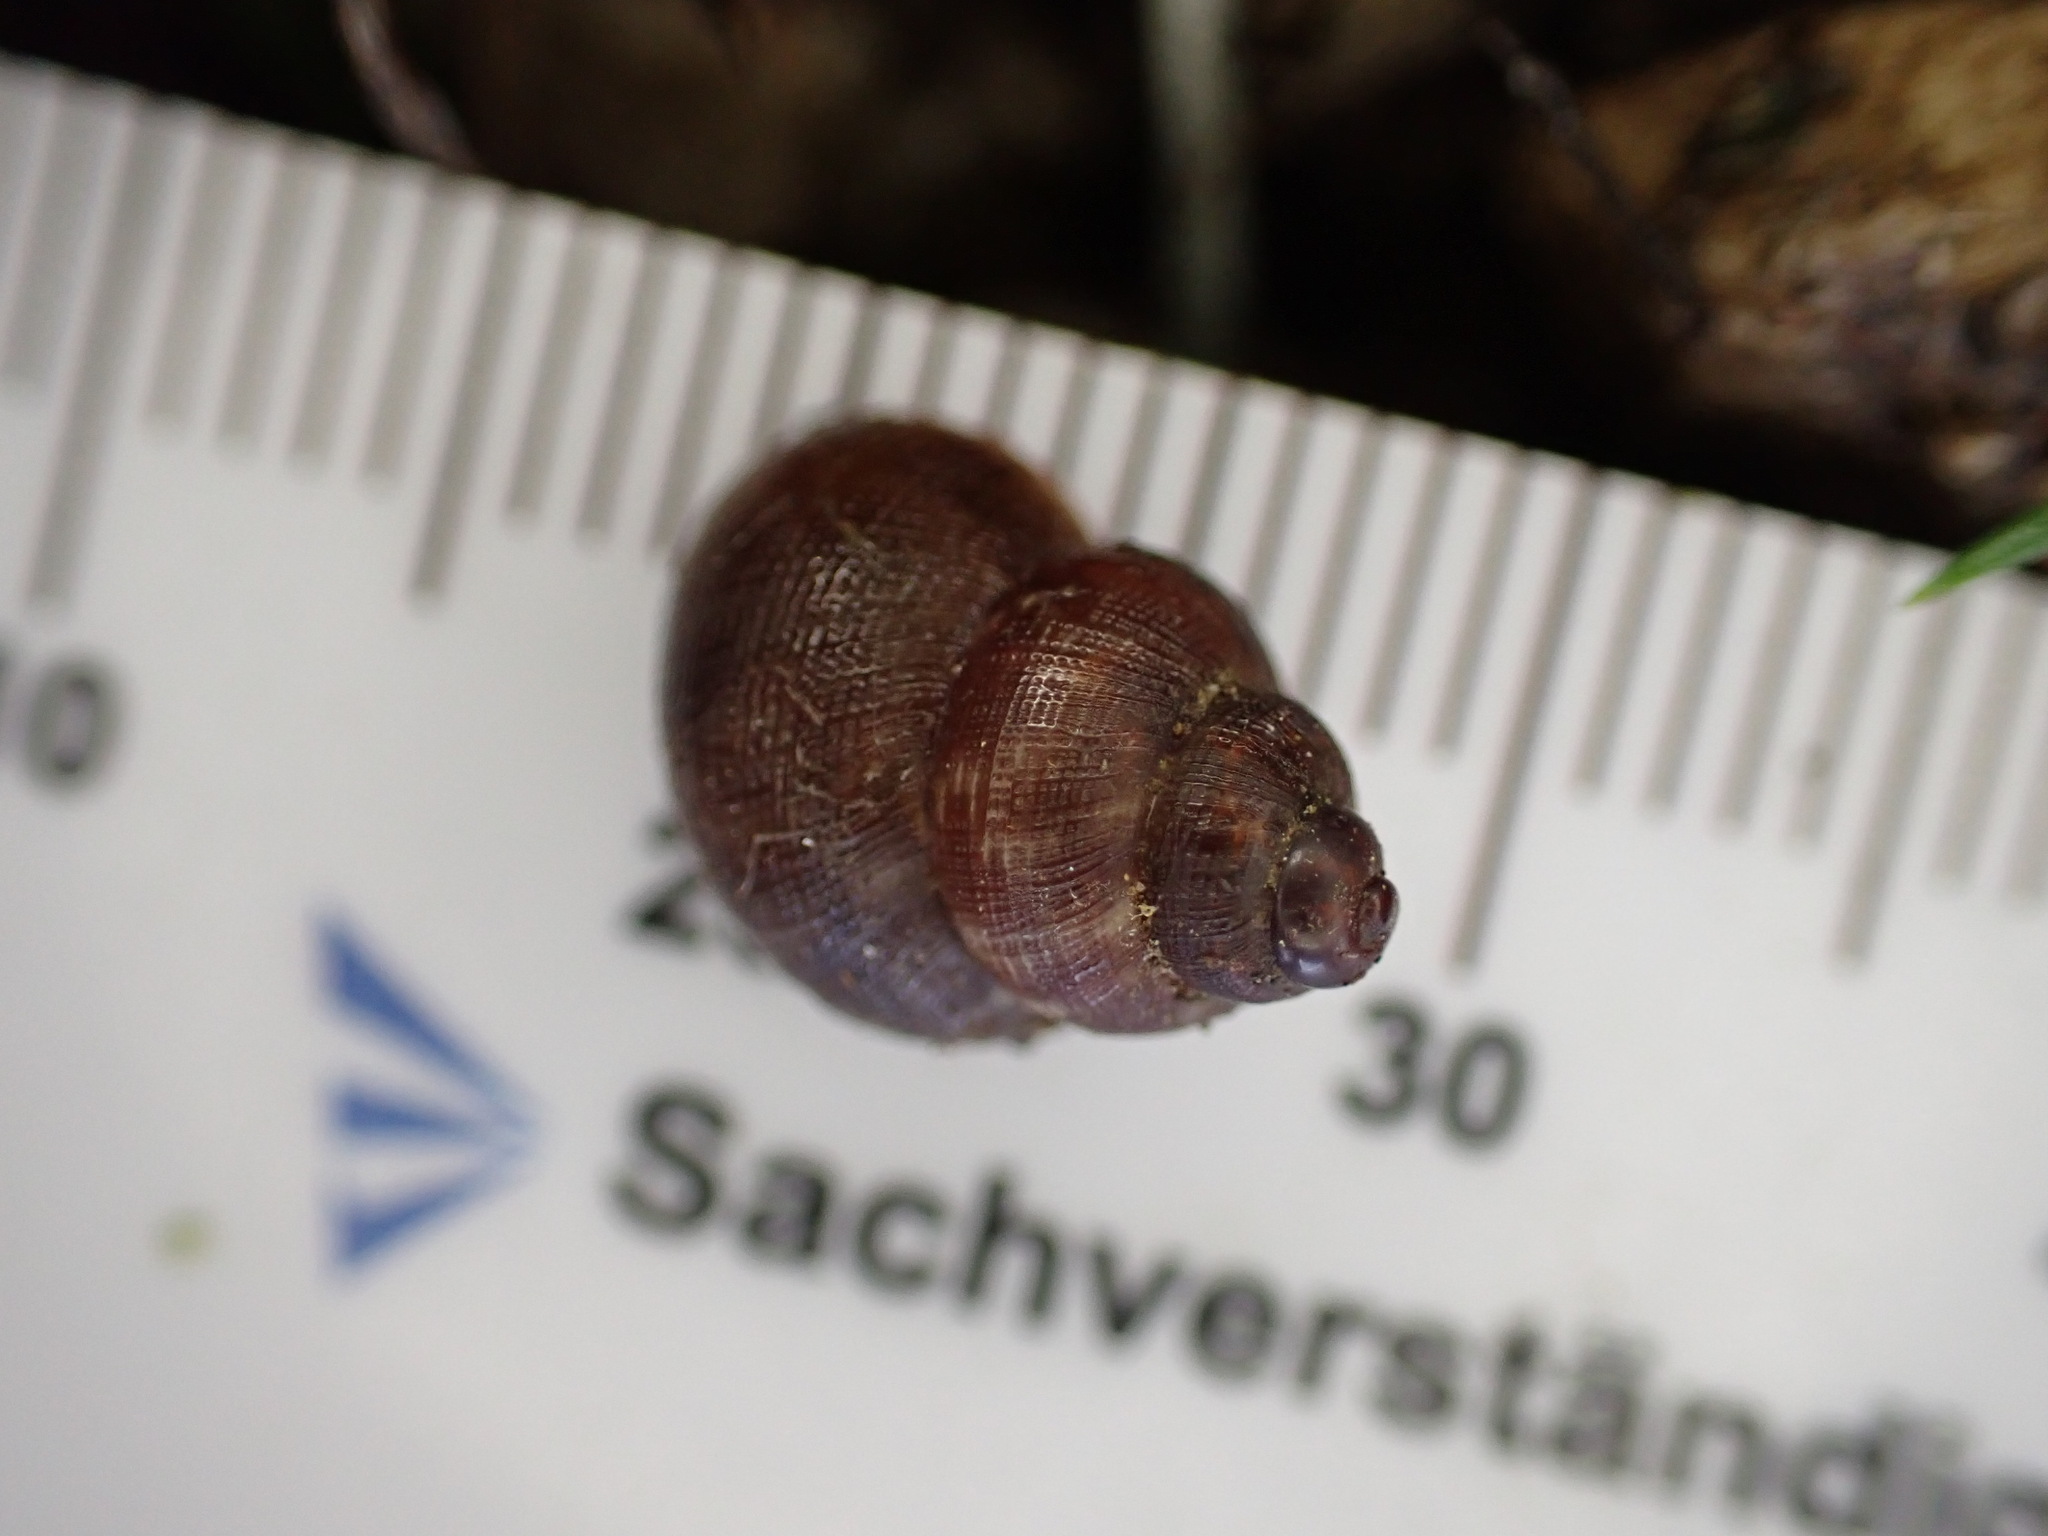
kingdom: Animalia
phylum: Mollusca
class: Gastropoda
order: Littorinimorpha
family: Pomatiidae
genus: Pomatias
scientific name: Pomatias elegans
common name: Red-mouthed snail
